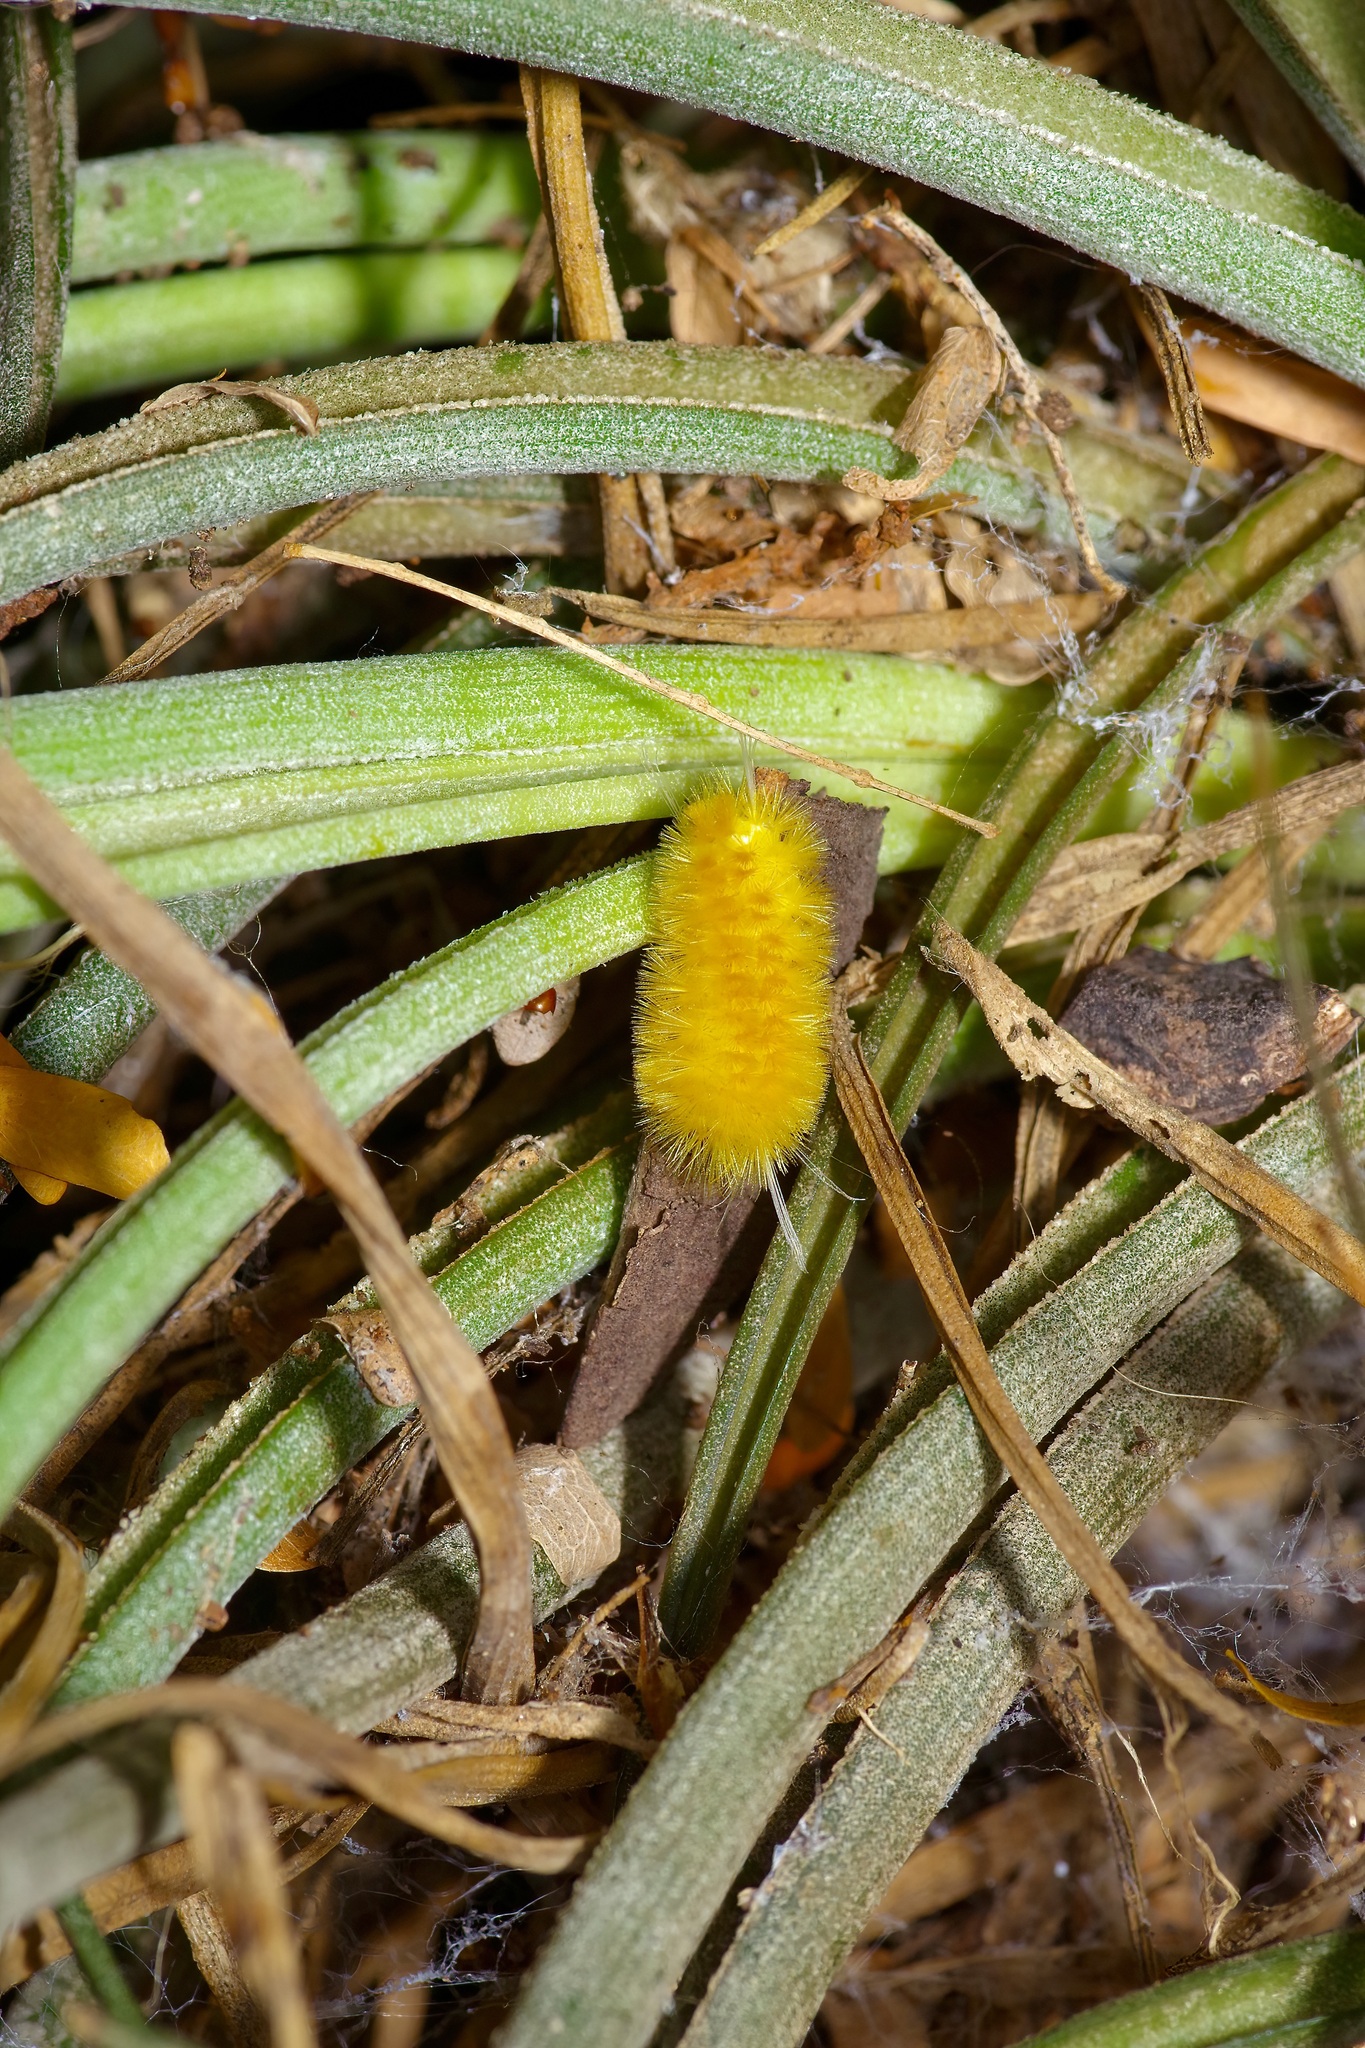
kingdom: Animalia
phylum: Arthropoda
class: Insecta
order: Lepidoptera
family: Erebidae
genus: Lophocampa
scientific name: Lophocampa annulosa
